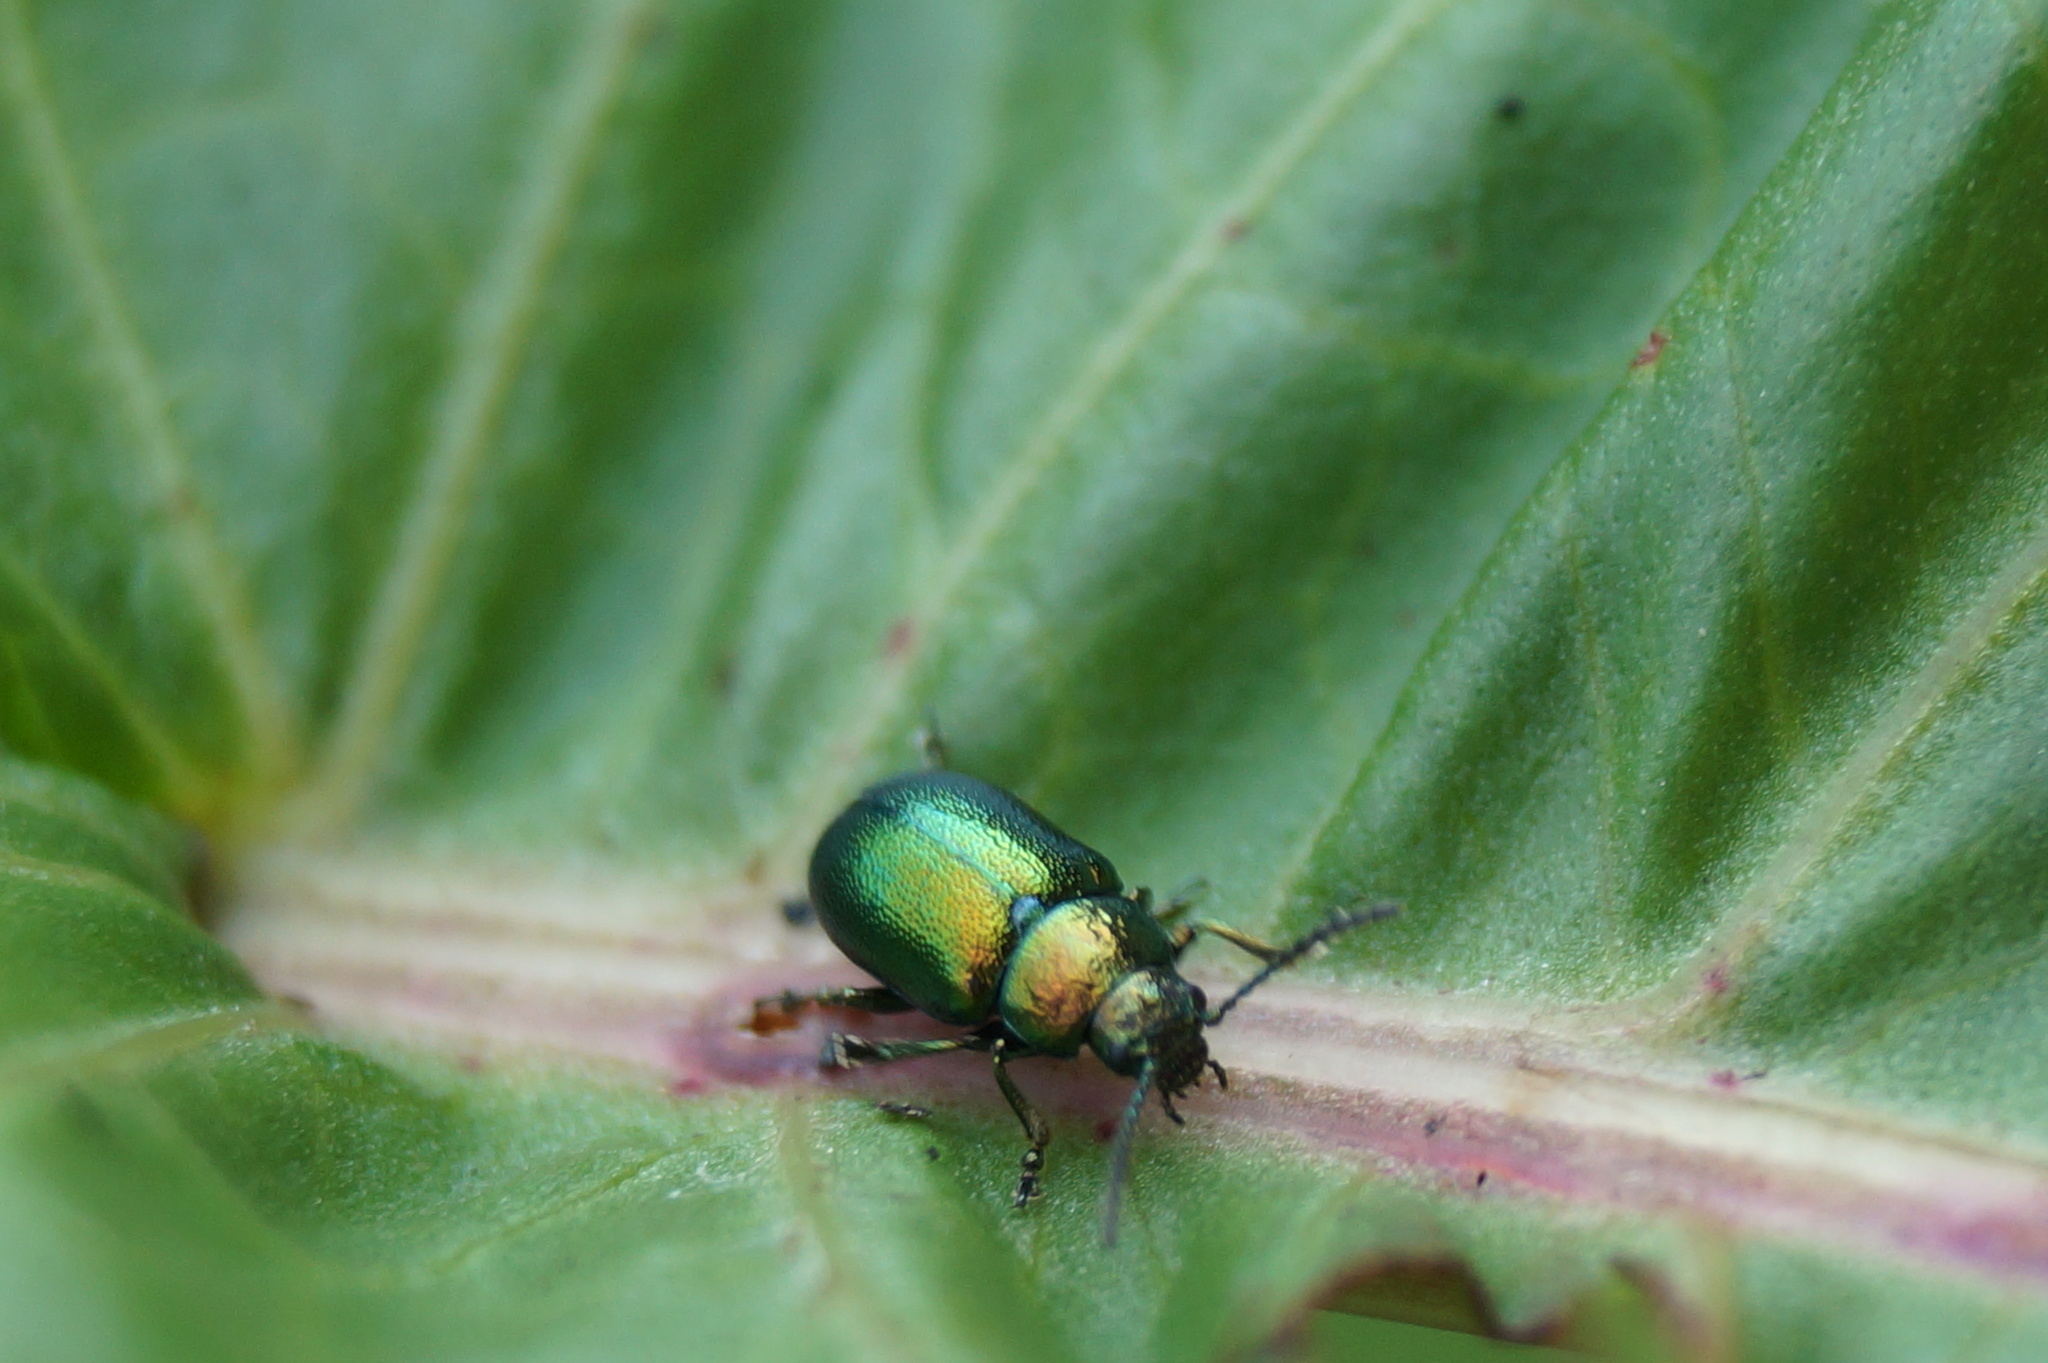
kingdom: Animalia
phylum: Arthropoda
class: Insecta
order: Coleoptera
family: Chrysomelidae
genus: Gastrophysa
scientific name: Gastrophysa viridula
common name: Green dock beetle
